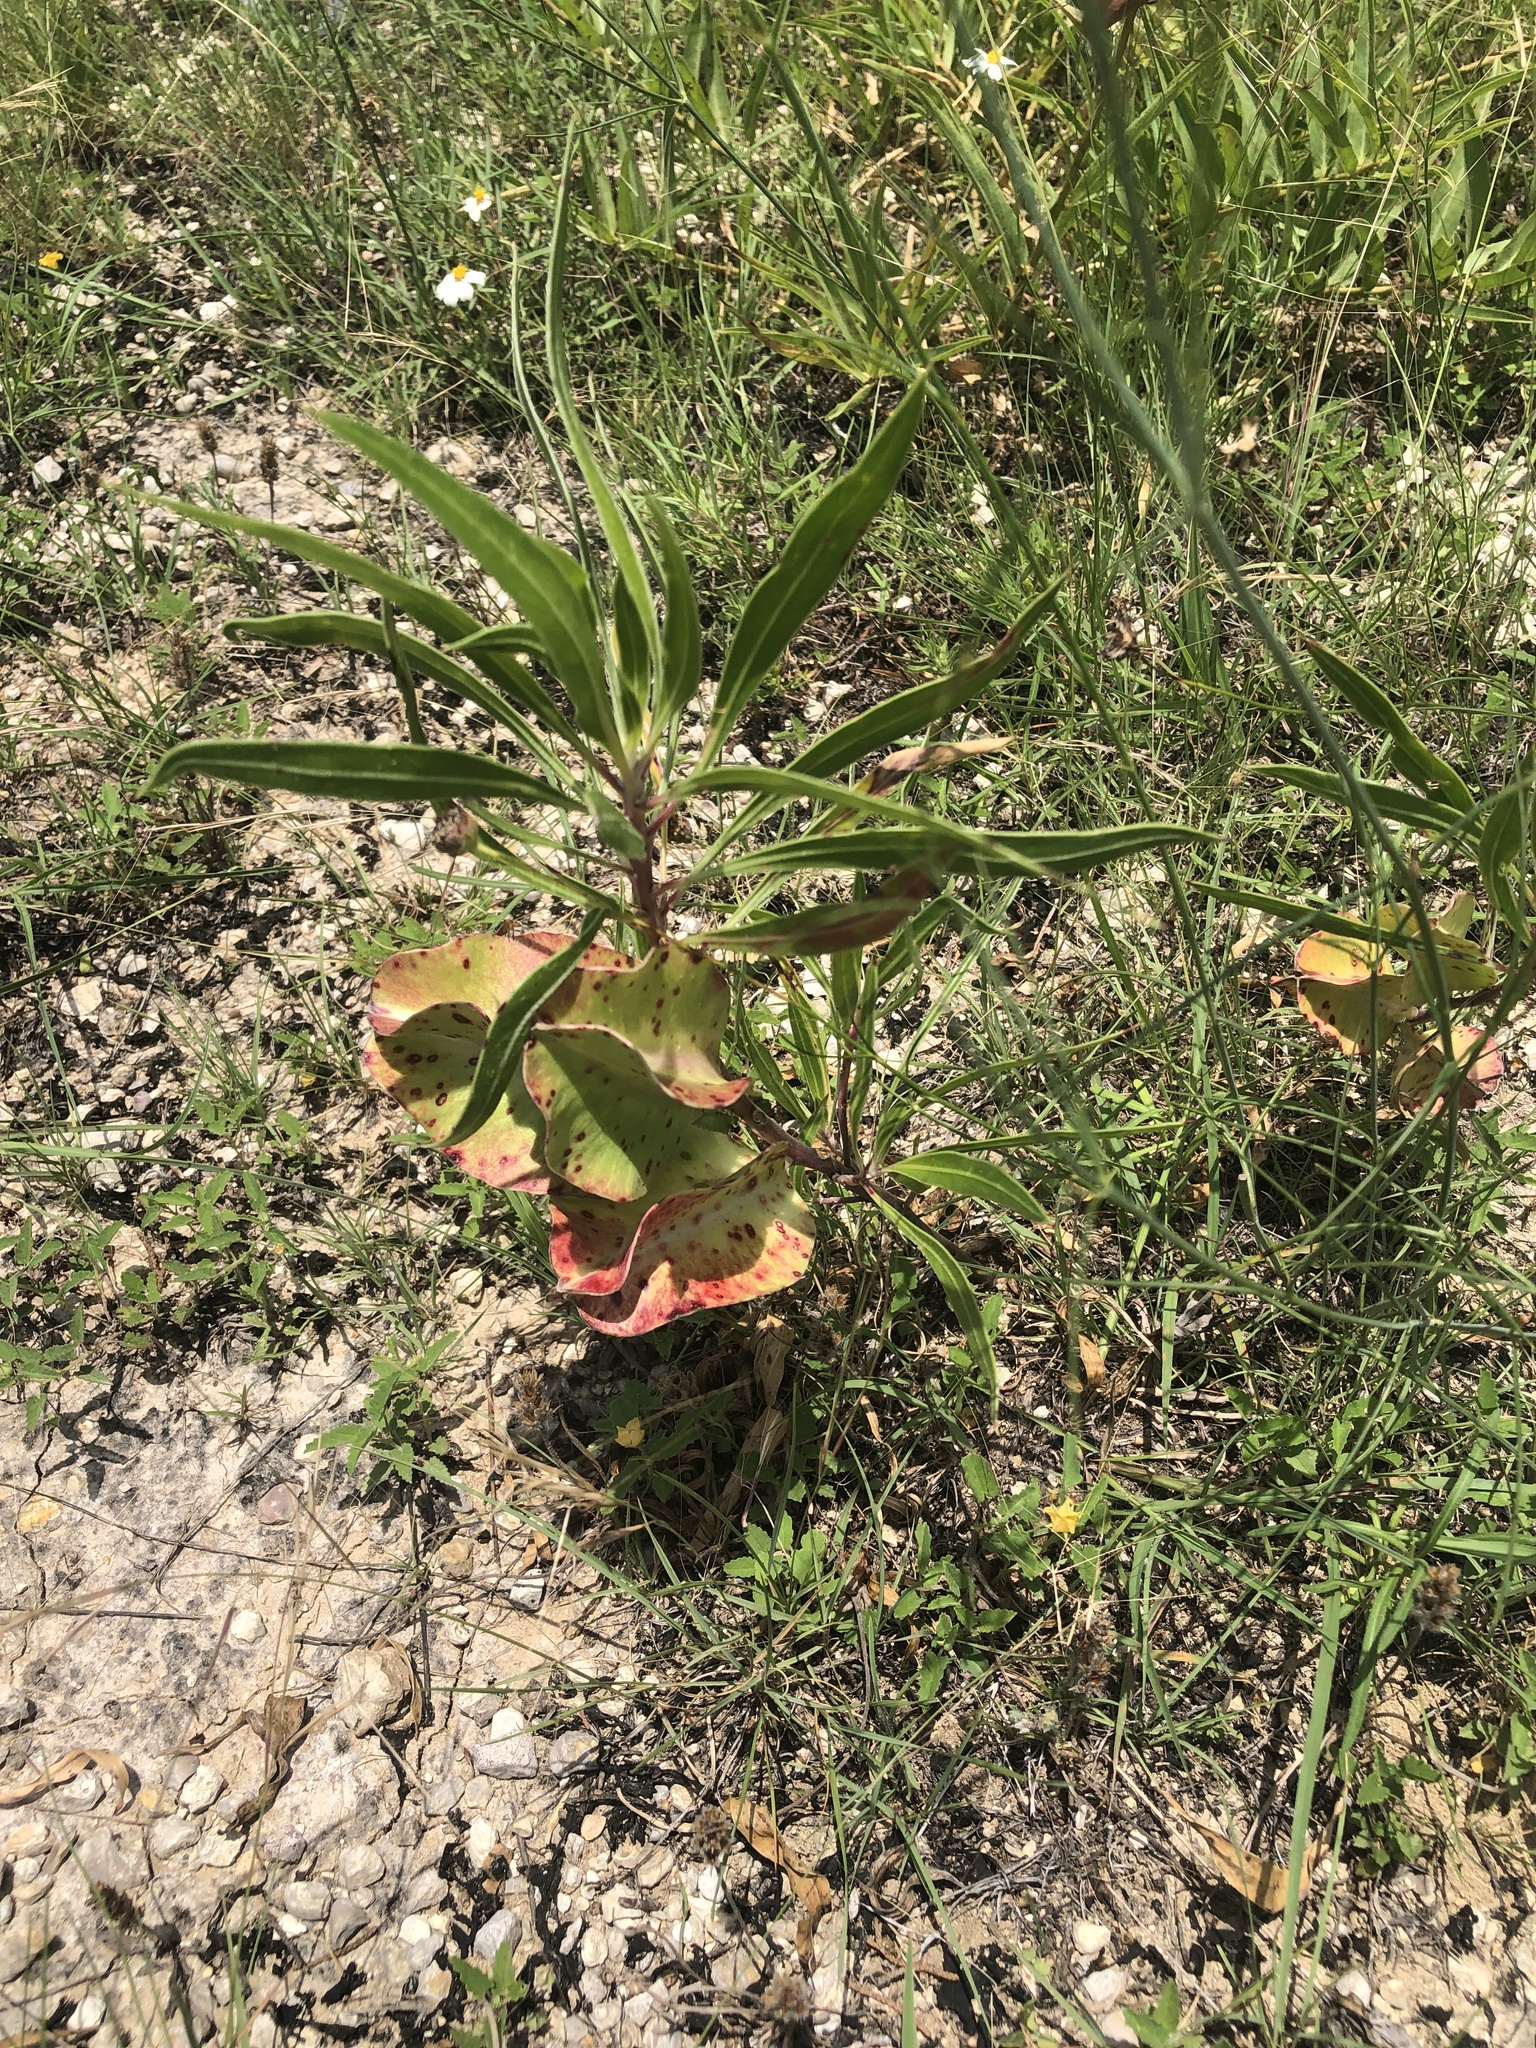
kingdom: Plantae
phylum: Tracheophyta
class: Magnoliopsida
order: Myrtales
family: Onagraceae
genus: Oenothera
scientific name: Oenothera macrocarpa
